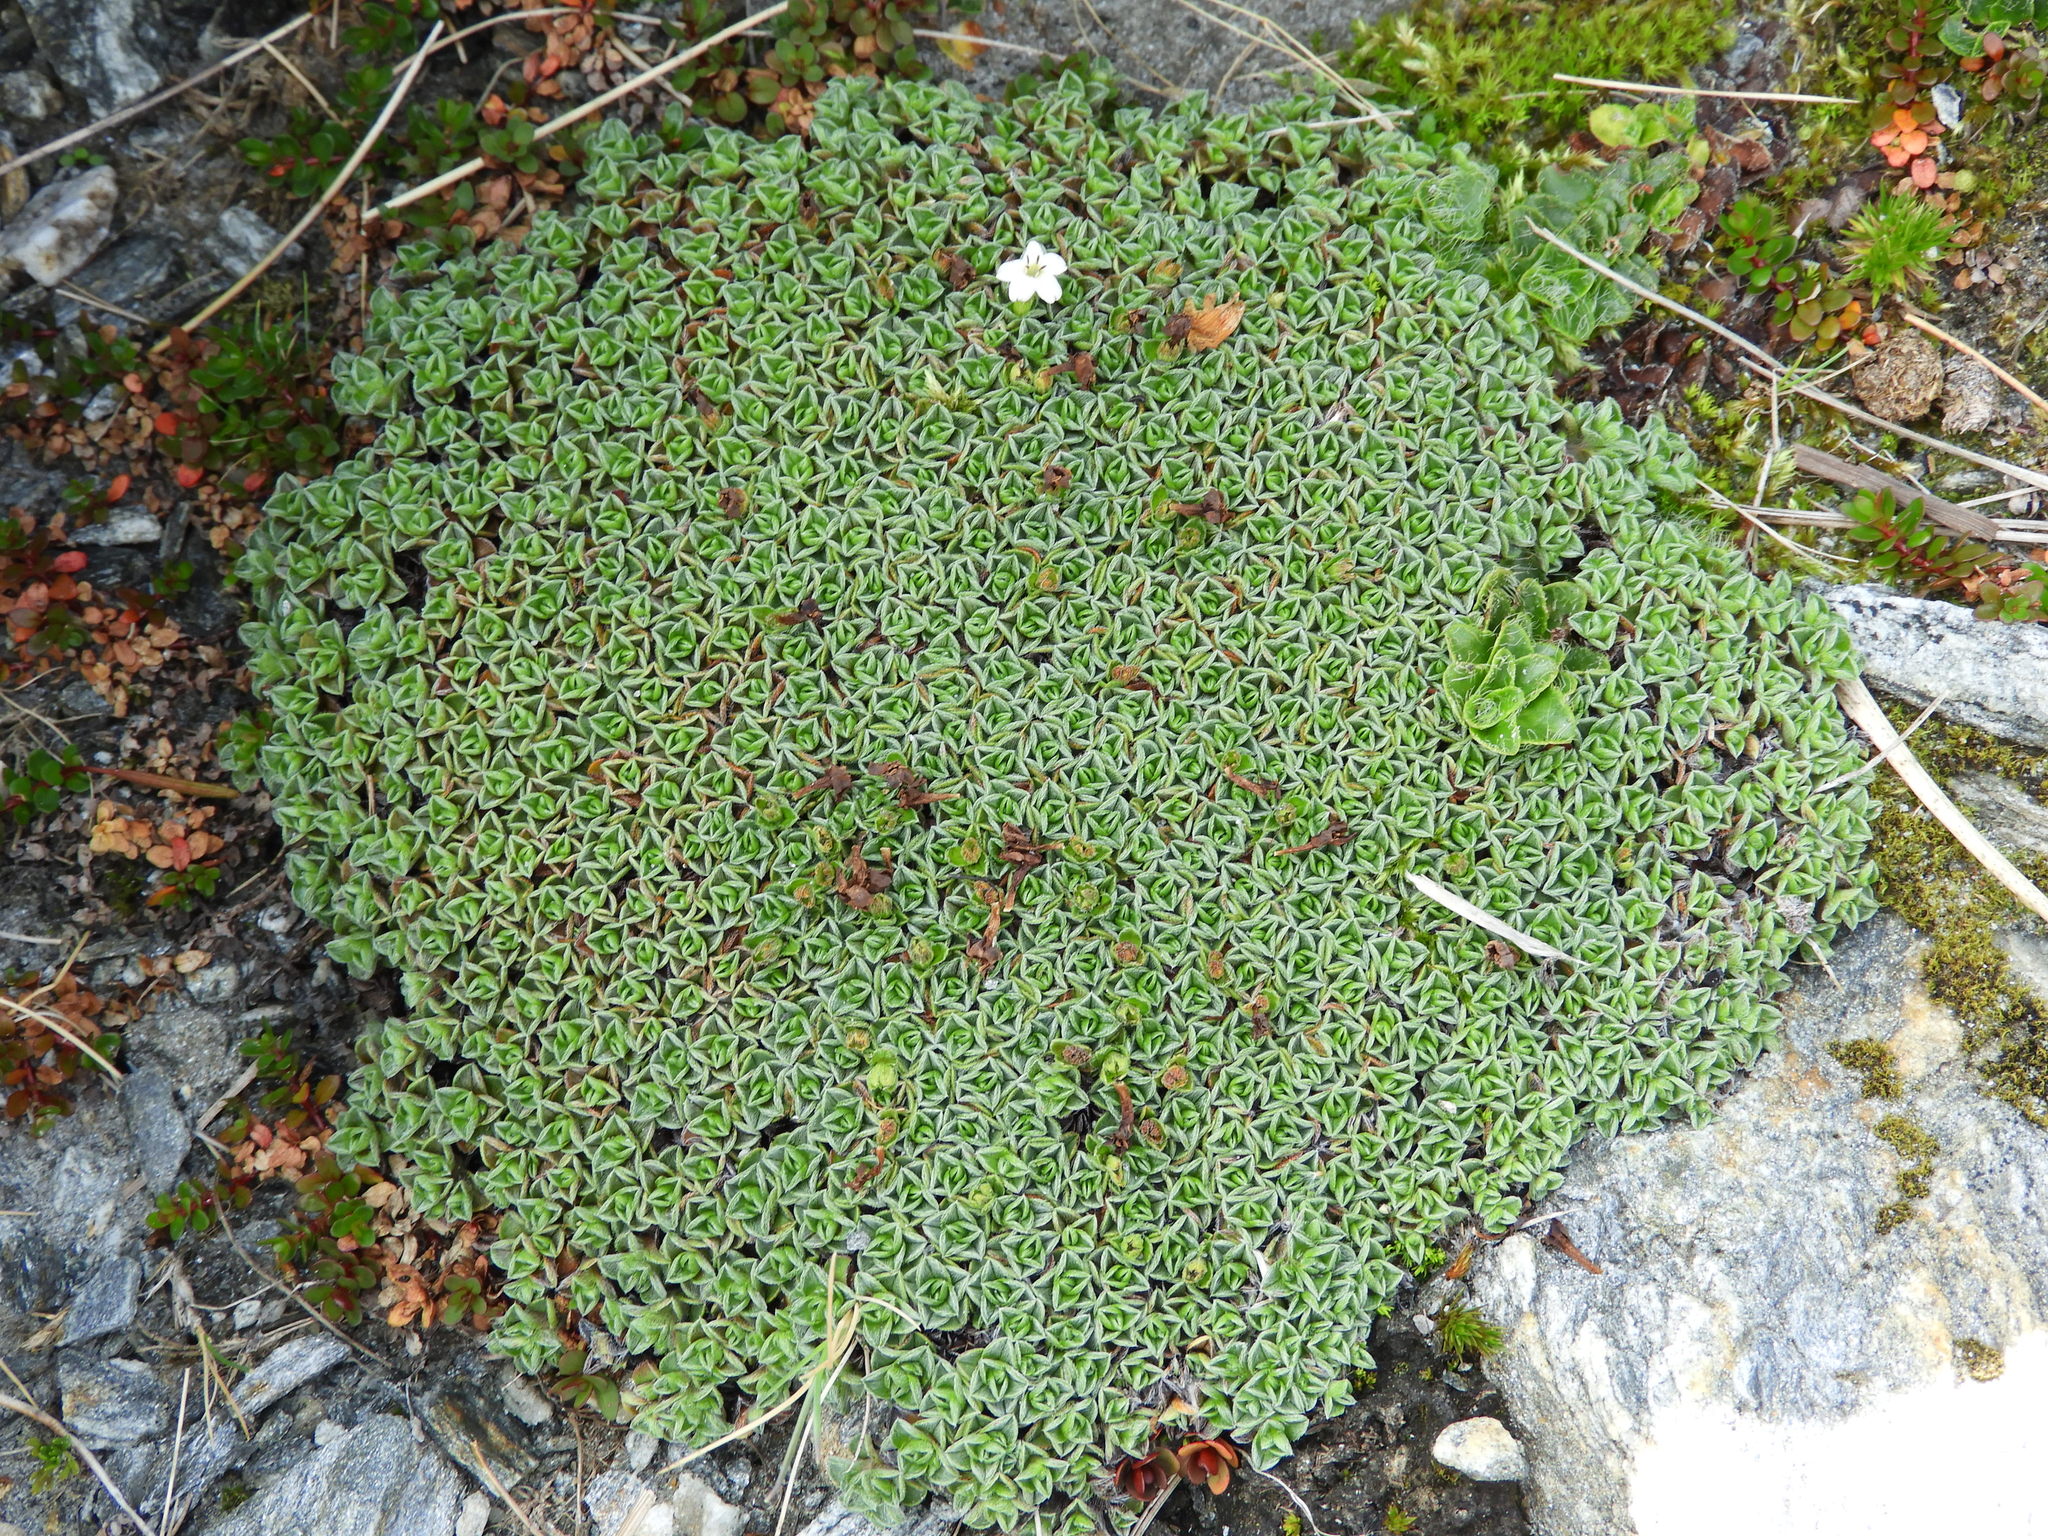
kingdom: Plantae
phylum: Tracheophyta
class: Magnoliopsida
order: Boraginales
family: Boraginaceae
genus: Myosotis
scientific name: Myosotis glabrescens
